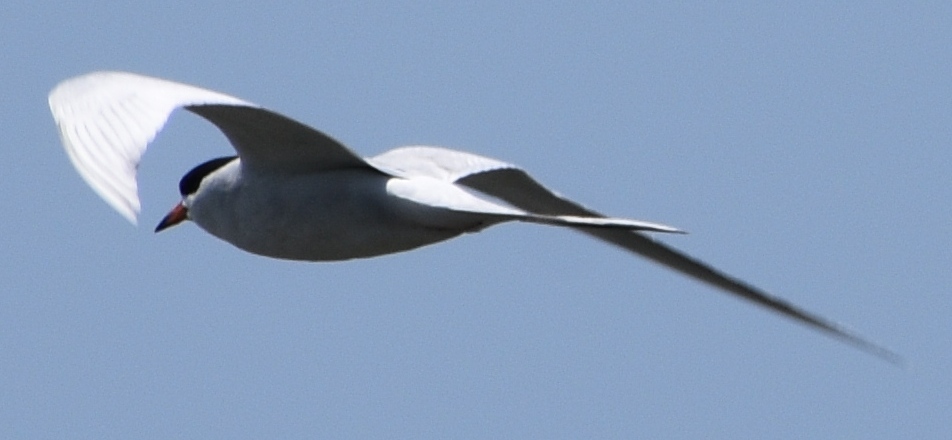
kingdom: Animalia
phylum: Chordata
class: Aves
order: Charadriiformes
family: Laridae
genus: Sterna
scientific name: Sterna forsteri
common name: Forster's tern
